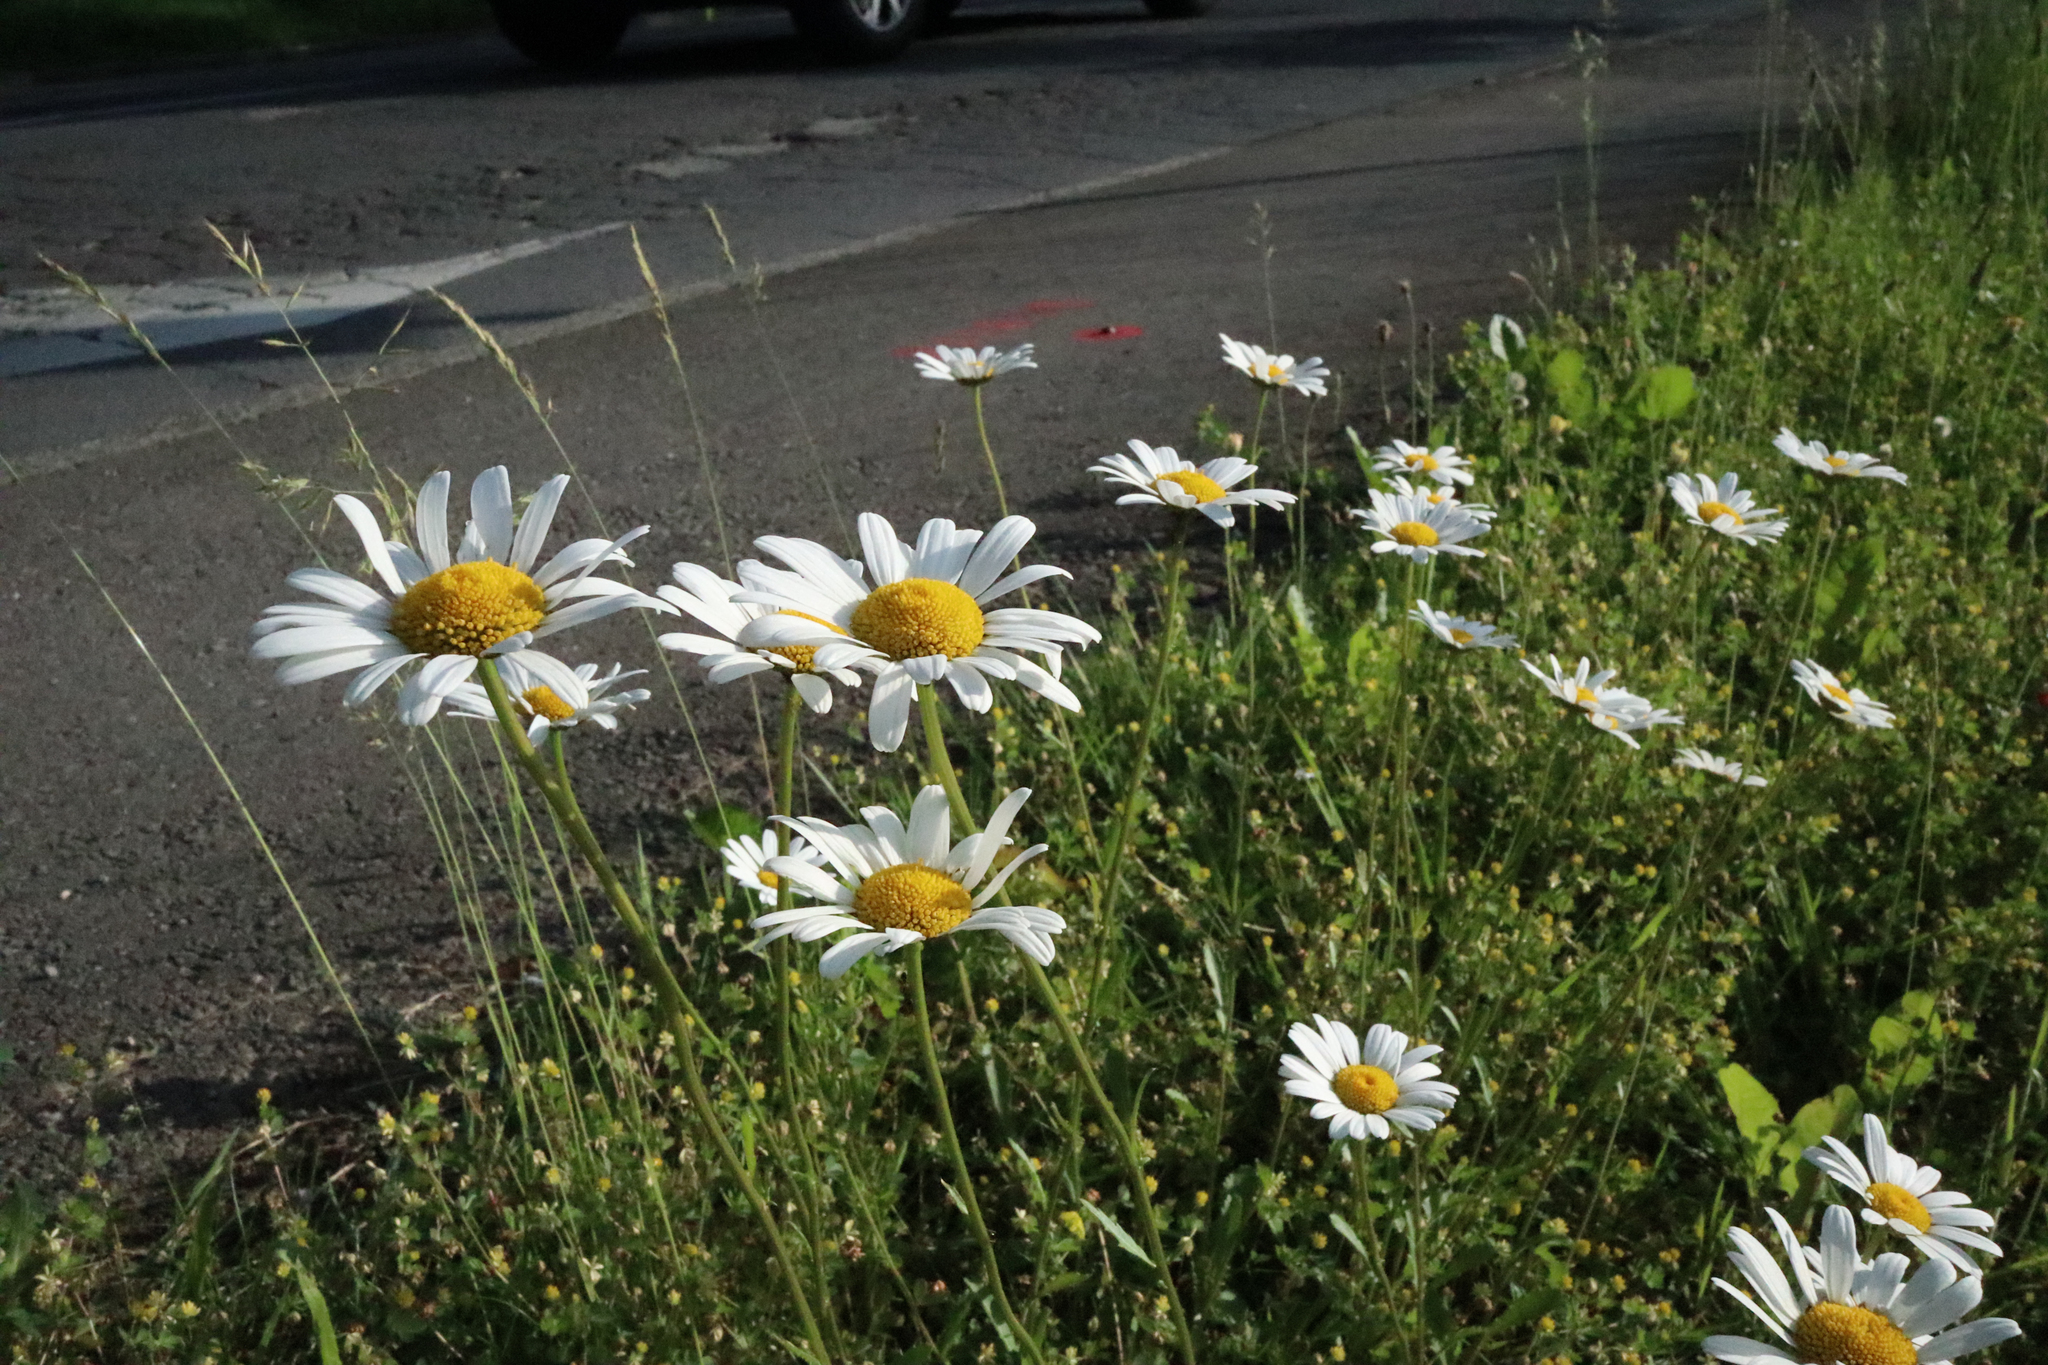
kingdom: Plantae
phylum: Tracheophyta
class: Magnoliopsida
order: Asterales
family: Asteraceae
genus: Leucanthemum
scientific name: Leucanthemum vulgare
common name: Oxeye daisy
